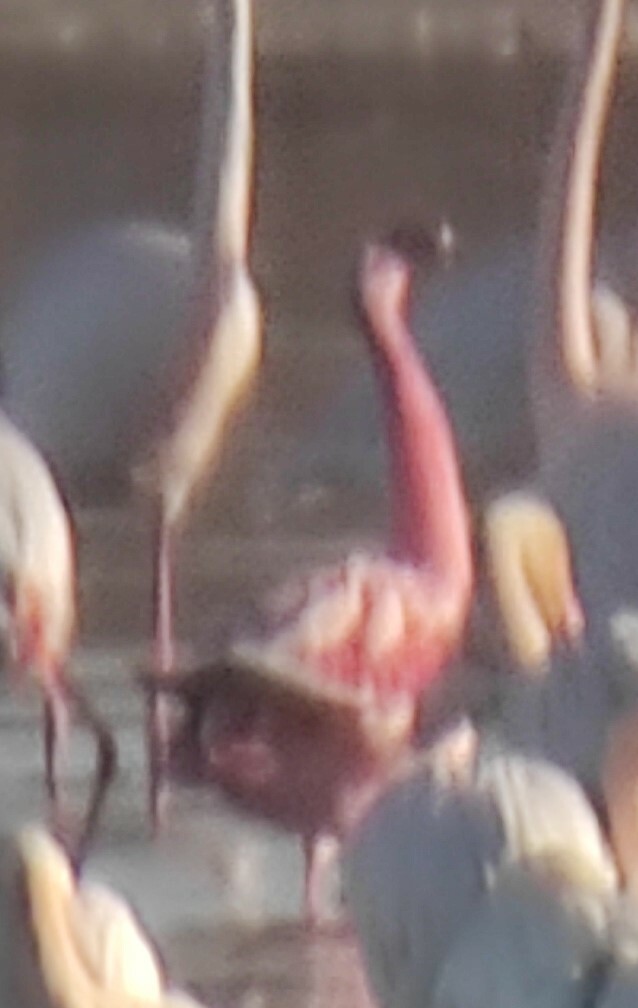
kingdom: Animalia
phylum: Chordata
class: Aves
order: Phoenicopteriformes
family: Phoenicopteridae
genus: Phoeniconaias
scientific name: Phoeniconaias minor
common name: Lesser flamingo
